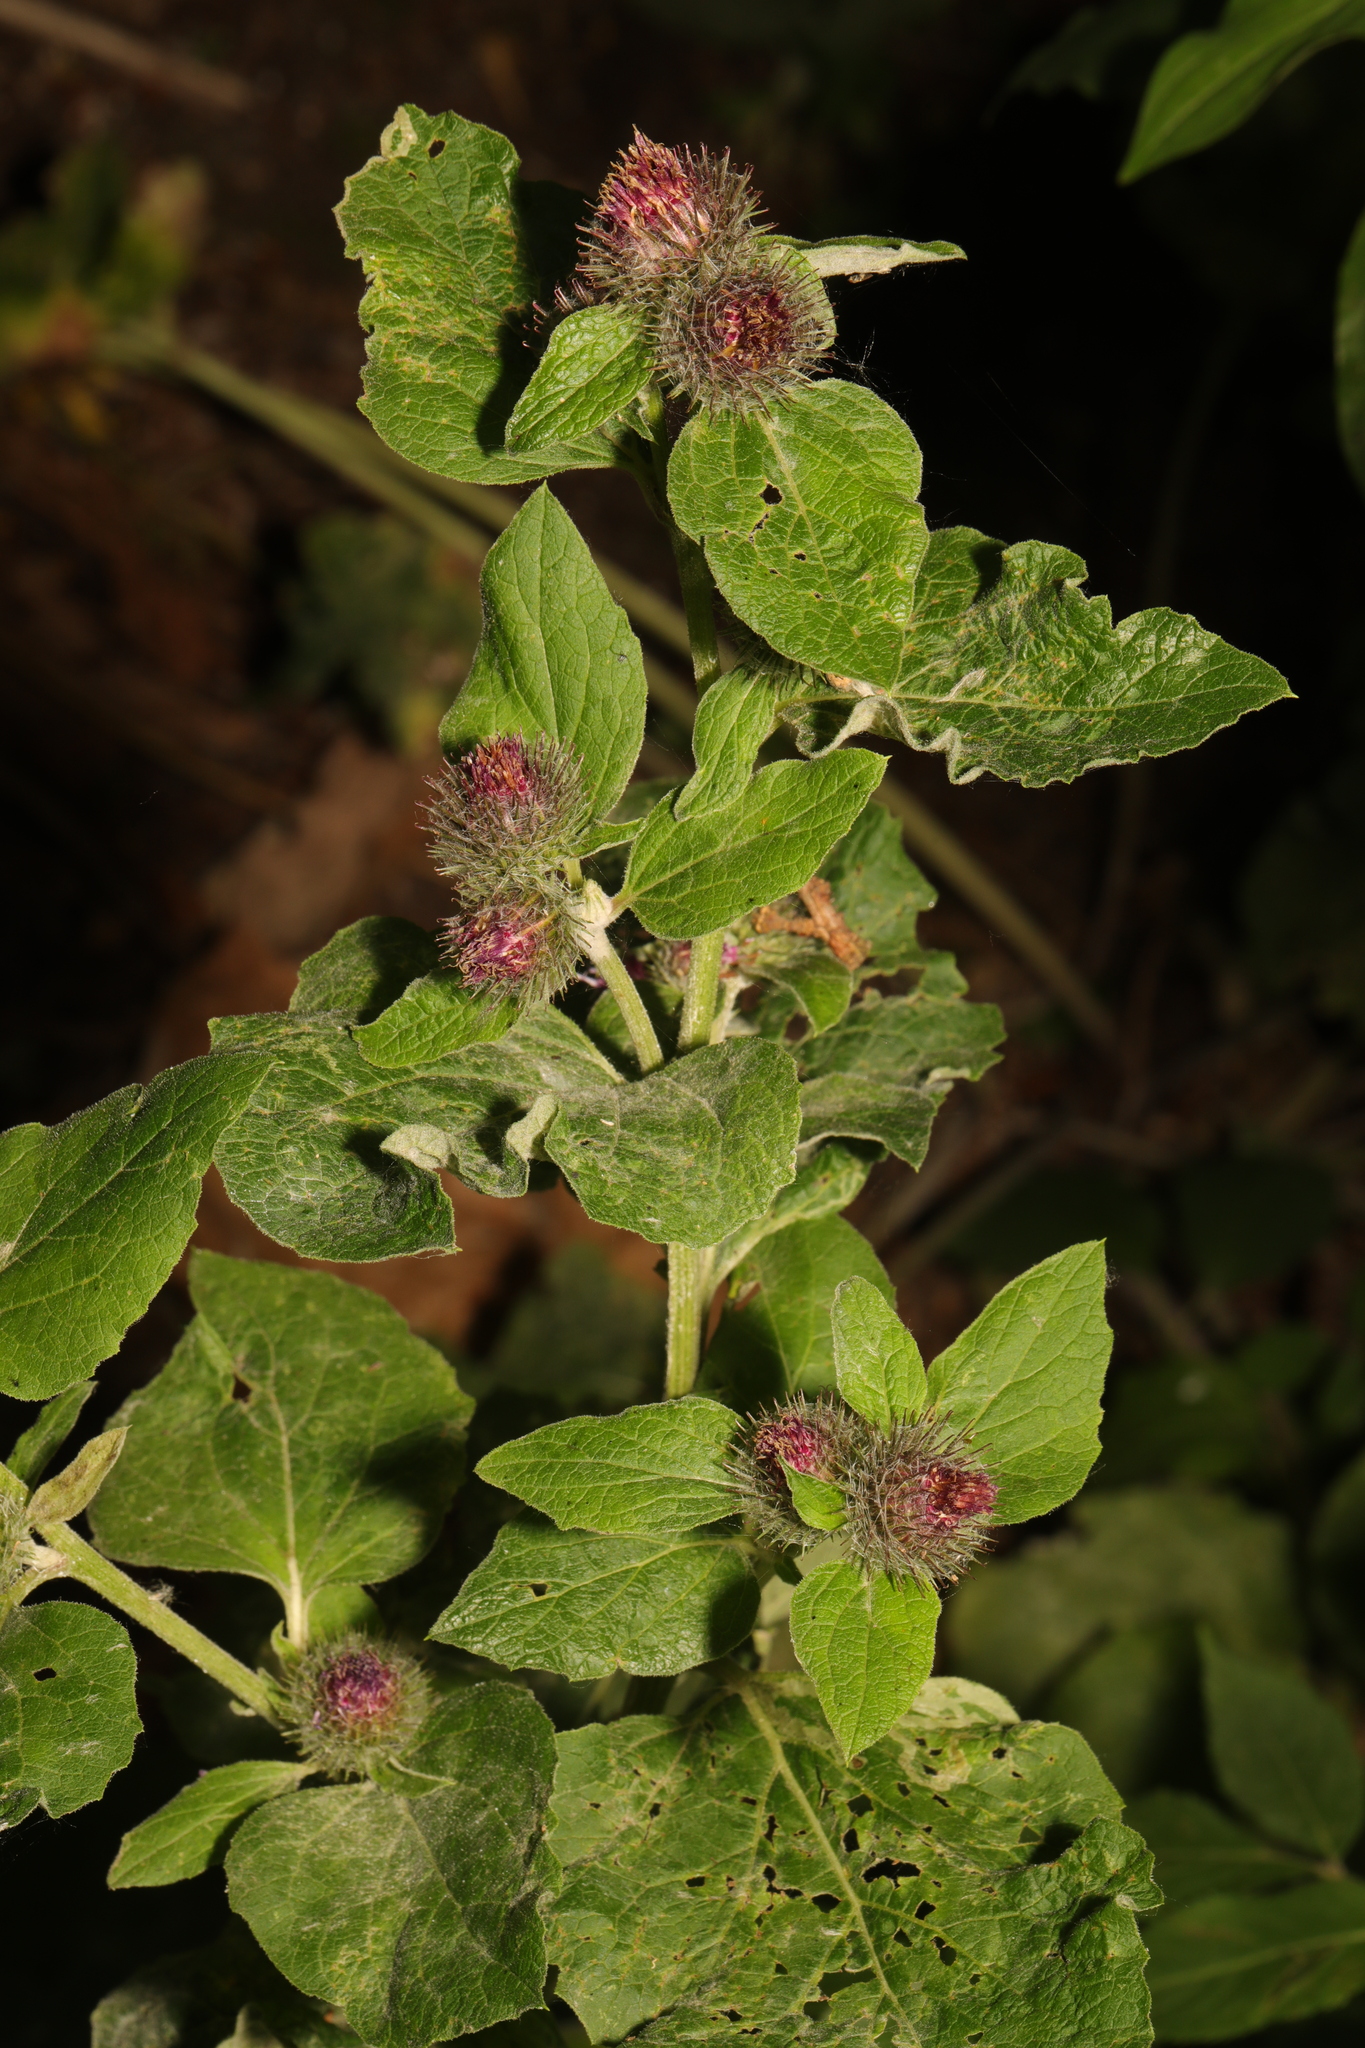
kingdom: Plantae
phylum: Tracheophyta
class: Magnoliopsida
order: Asterales
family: Asteraceae
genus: Arctium
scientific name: Arctium minus
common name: Lesser burdock
